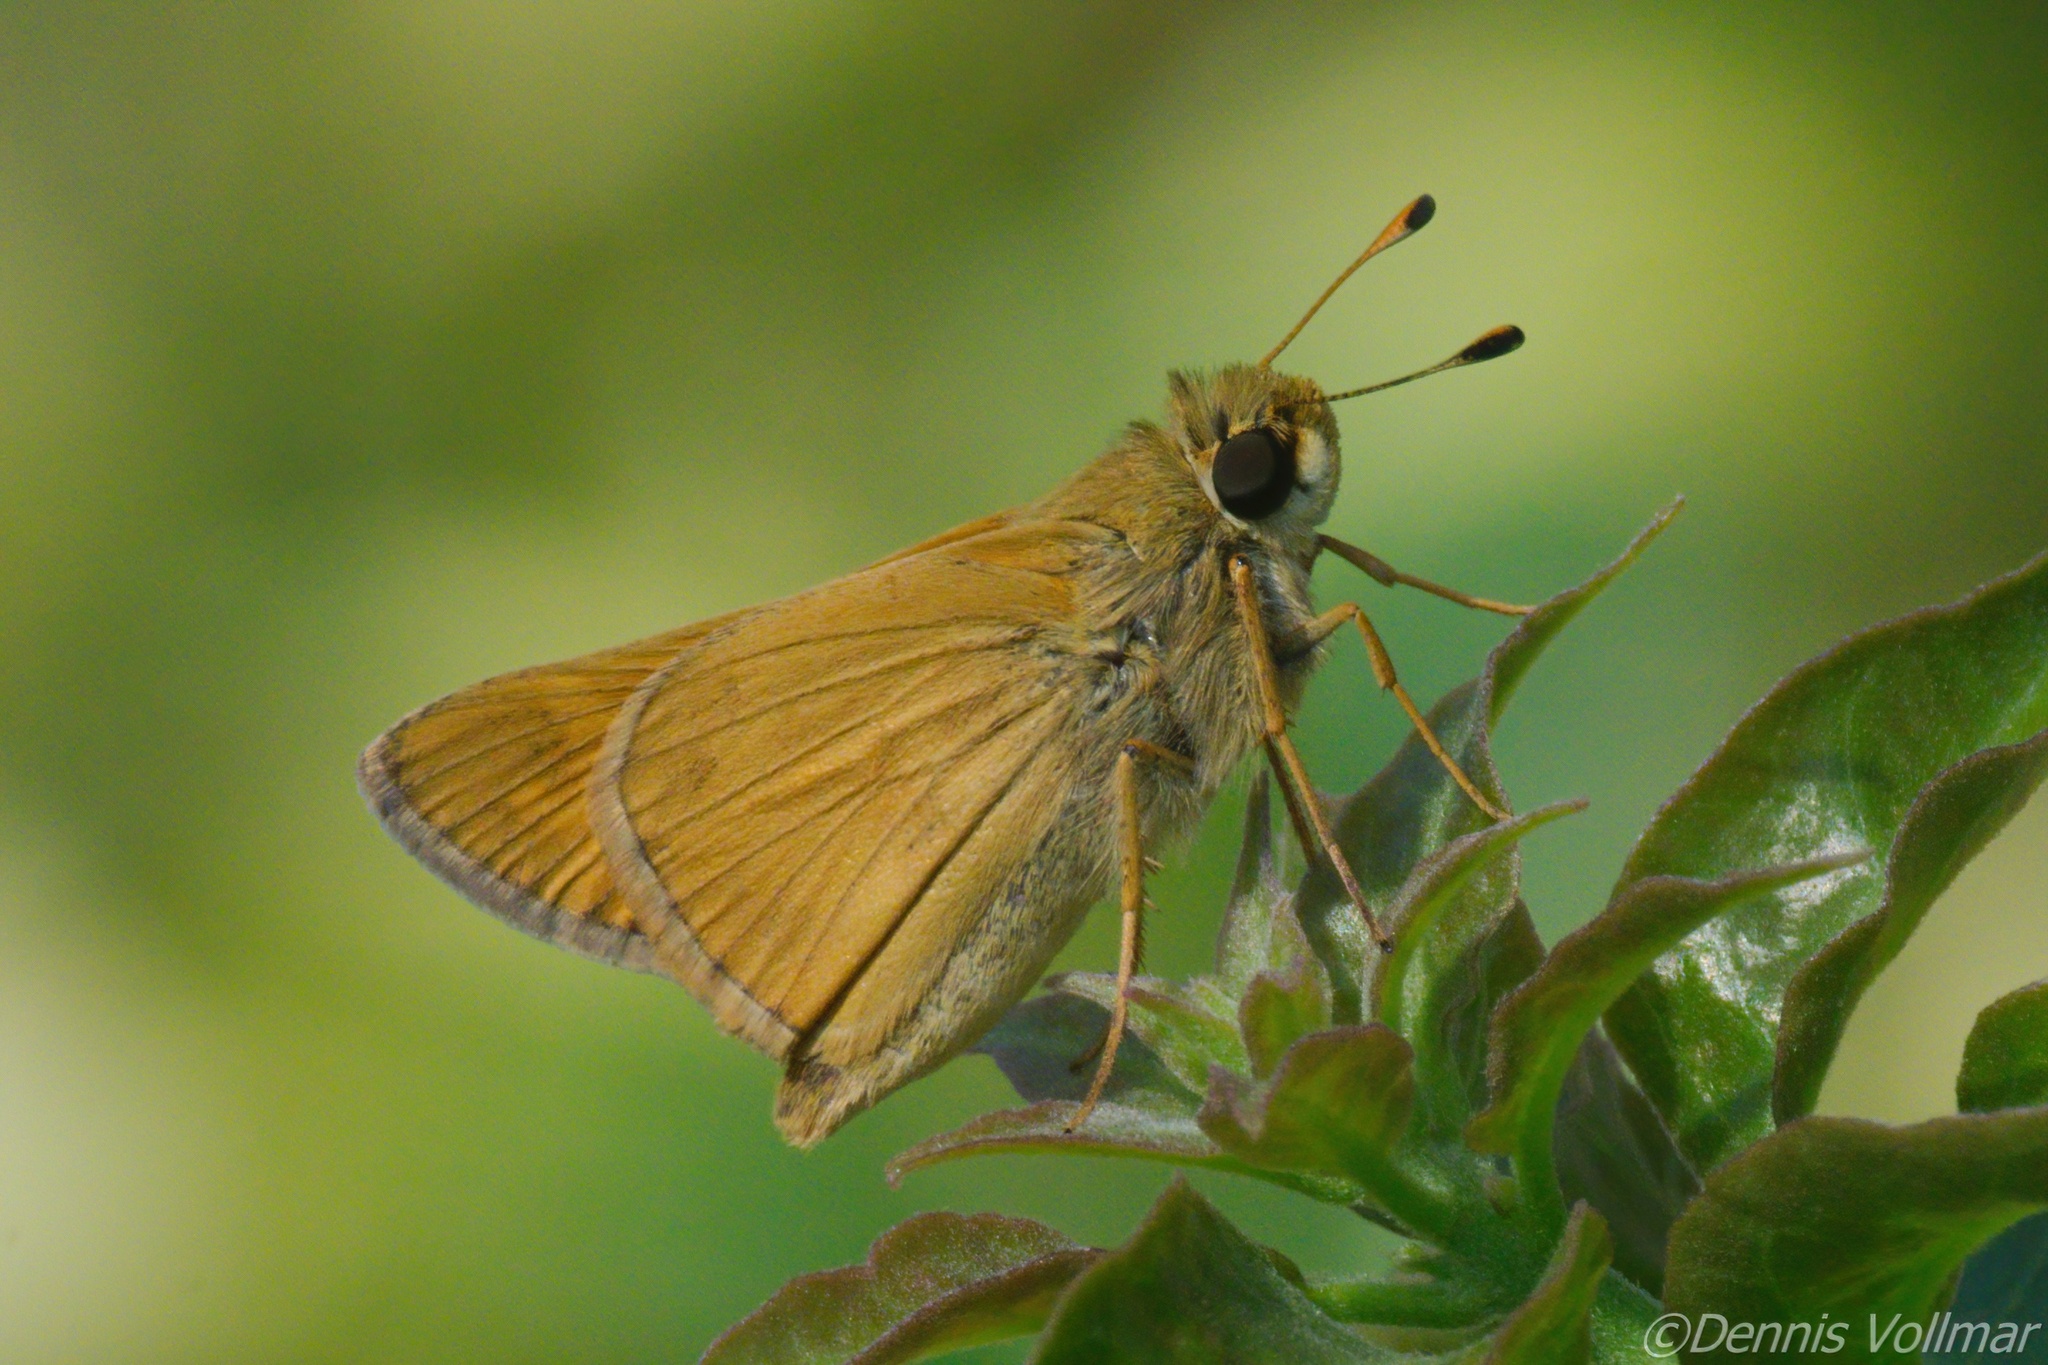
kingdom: Animalia
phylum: Arthropoda
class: Insecta
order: Lepidoptera
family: Hesperiidae
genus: Atalopedes
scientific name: Atalopedes
